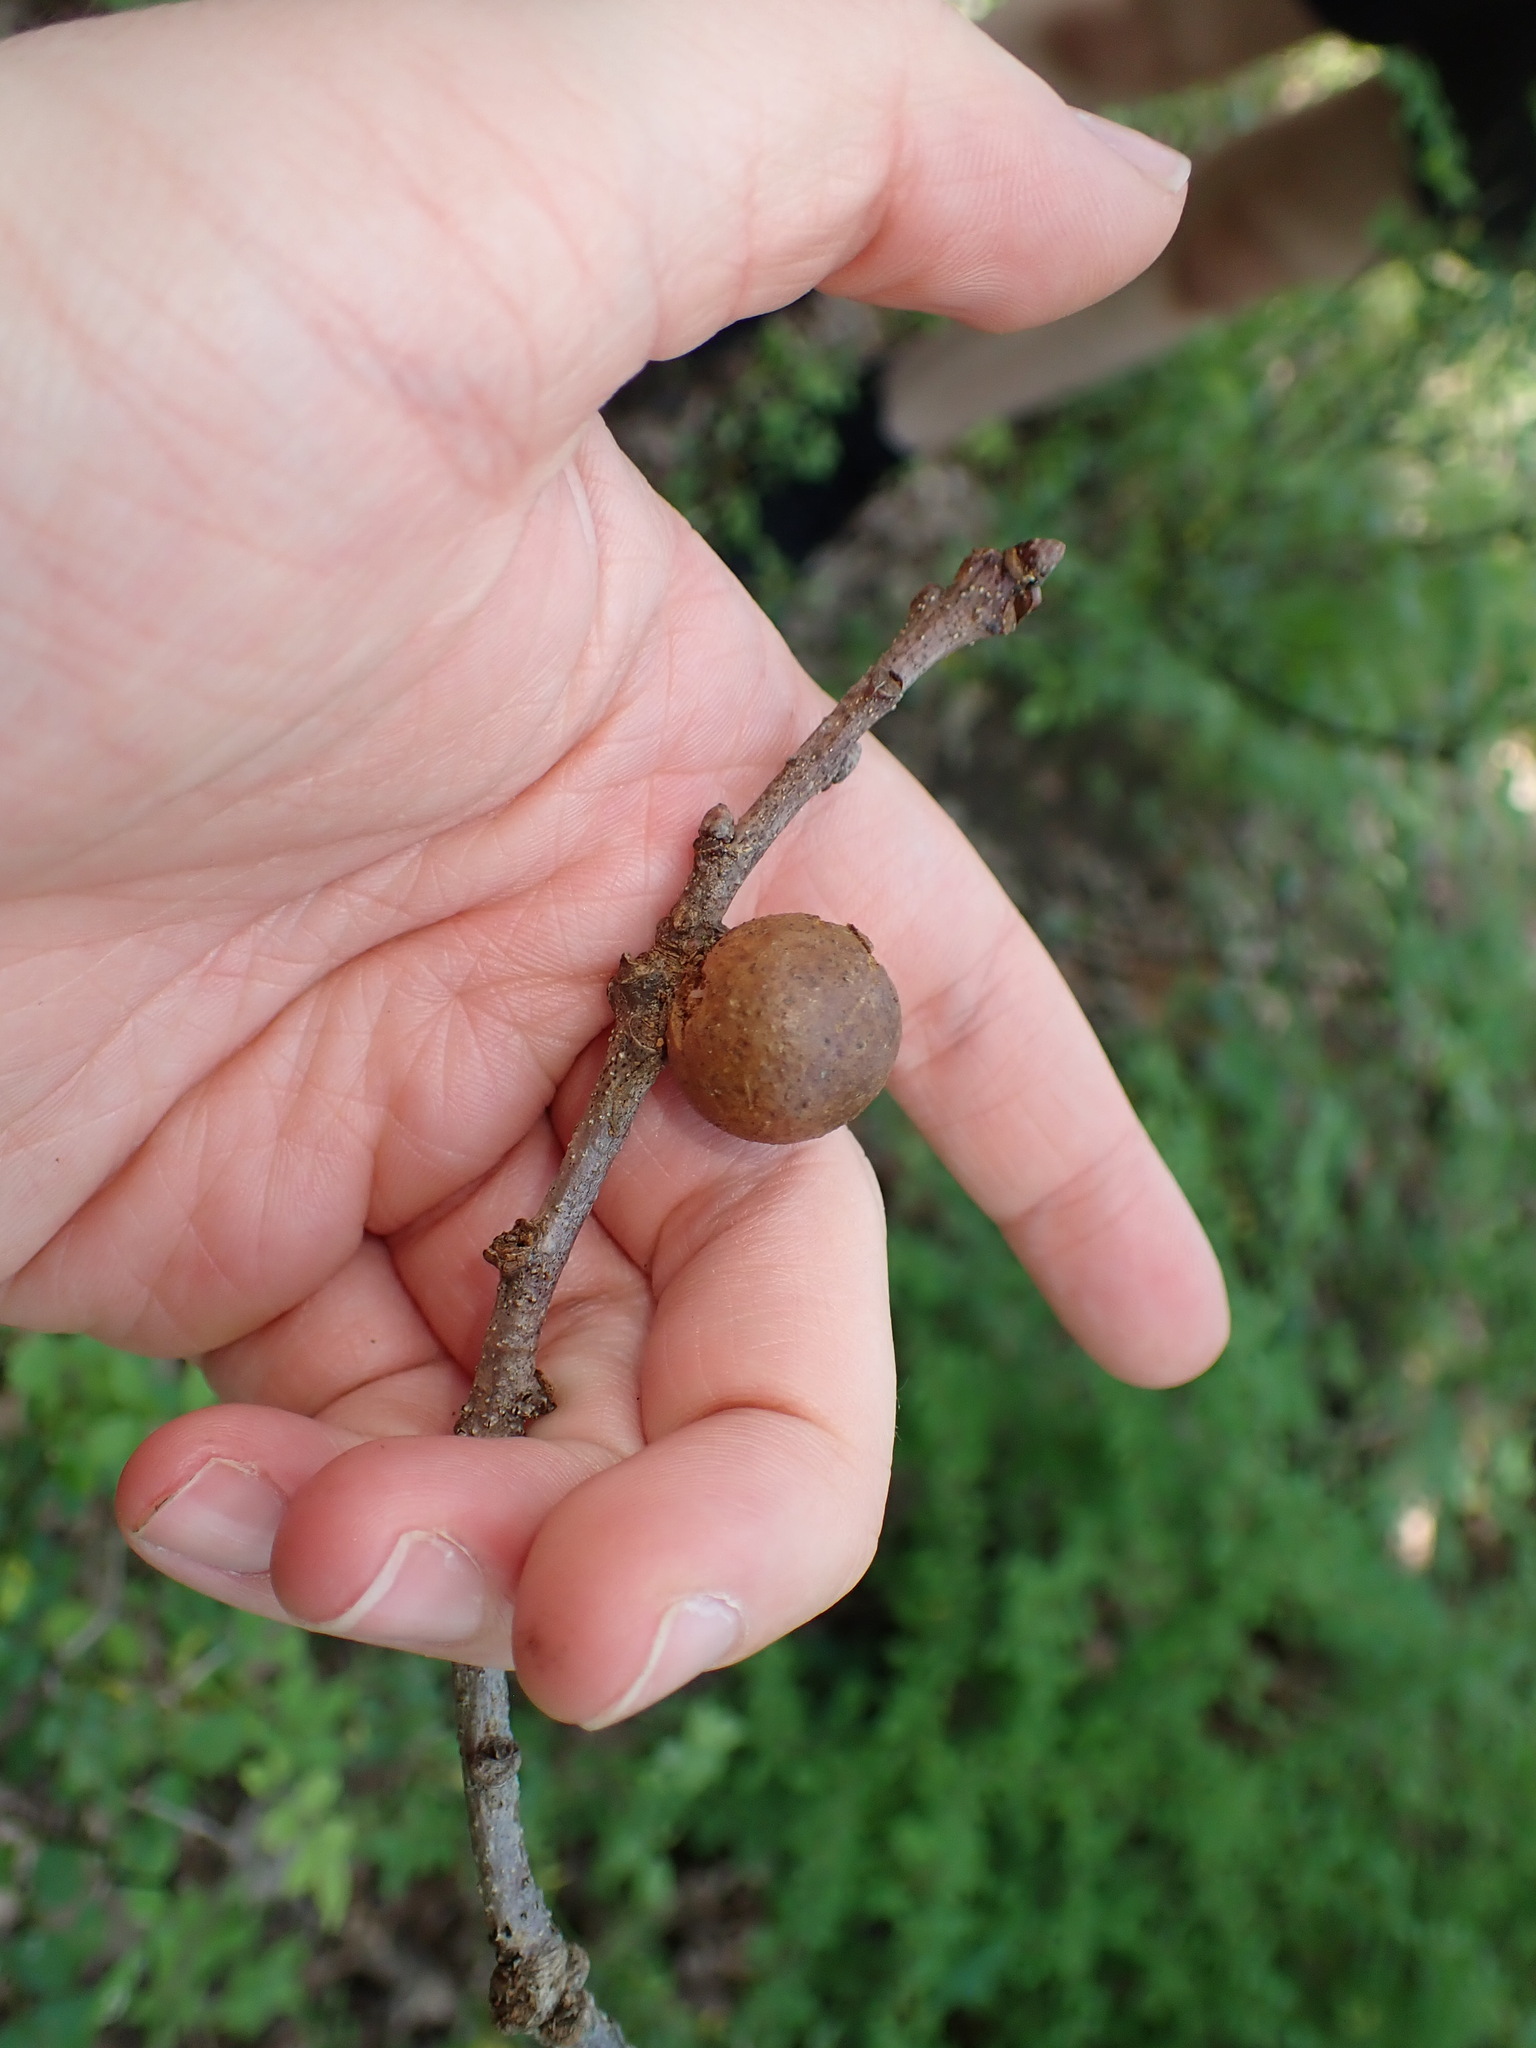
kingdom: Animalia
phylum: Arthropoda
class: Insecta
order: Hymenoptera
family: Cynipidae
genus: Disholcaspis
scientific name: Disholcaspis quercusglobulus
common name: Round bullet gall wasp
